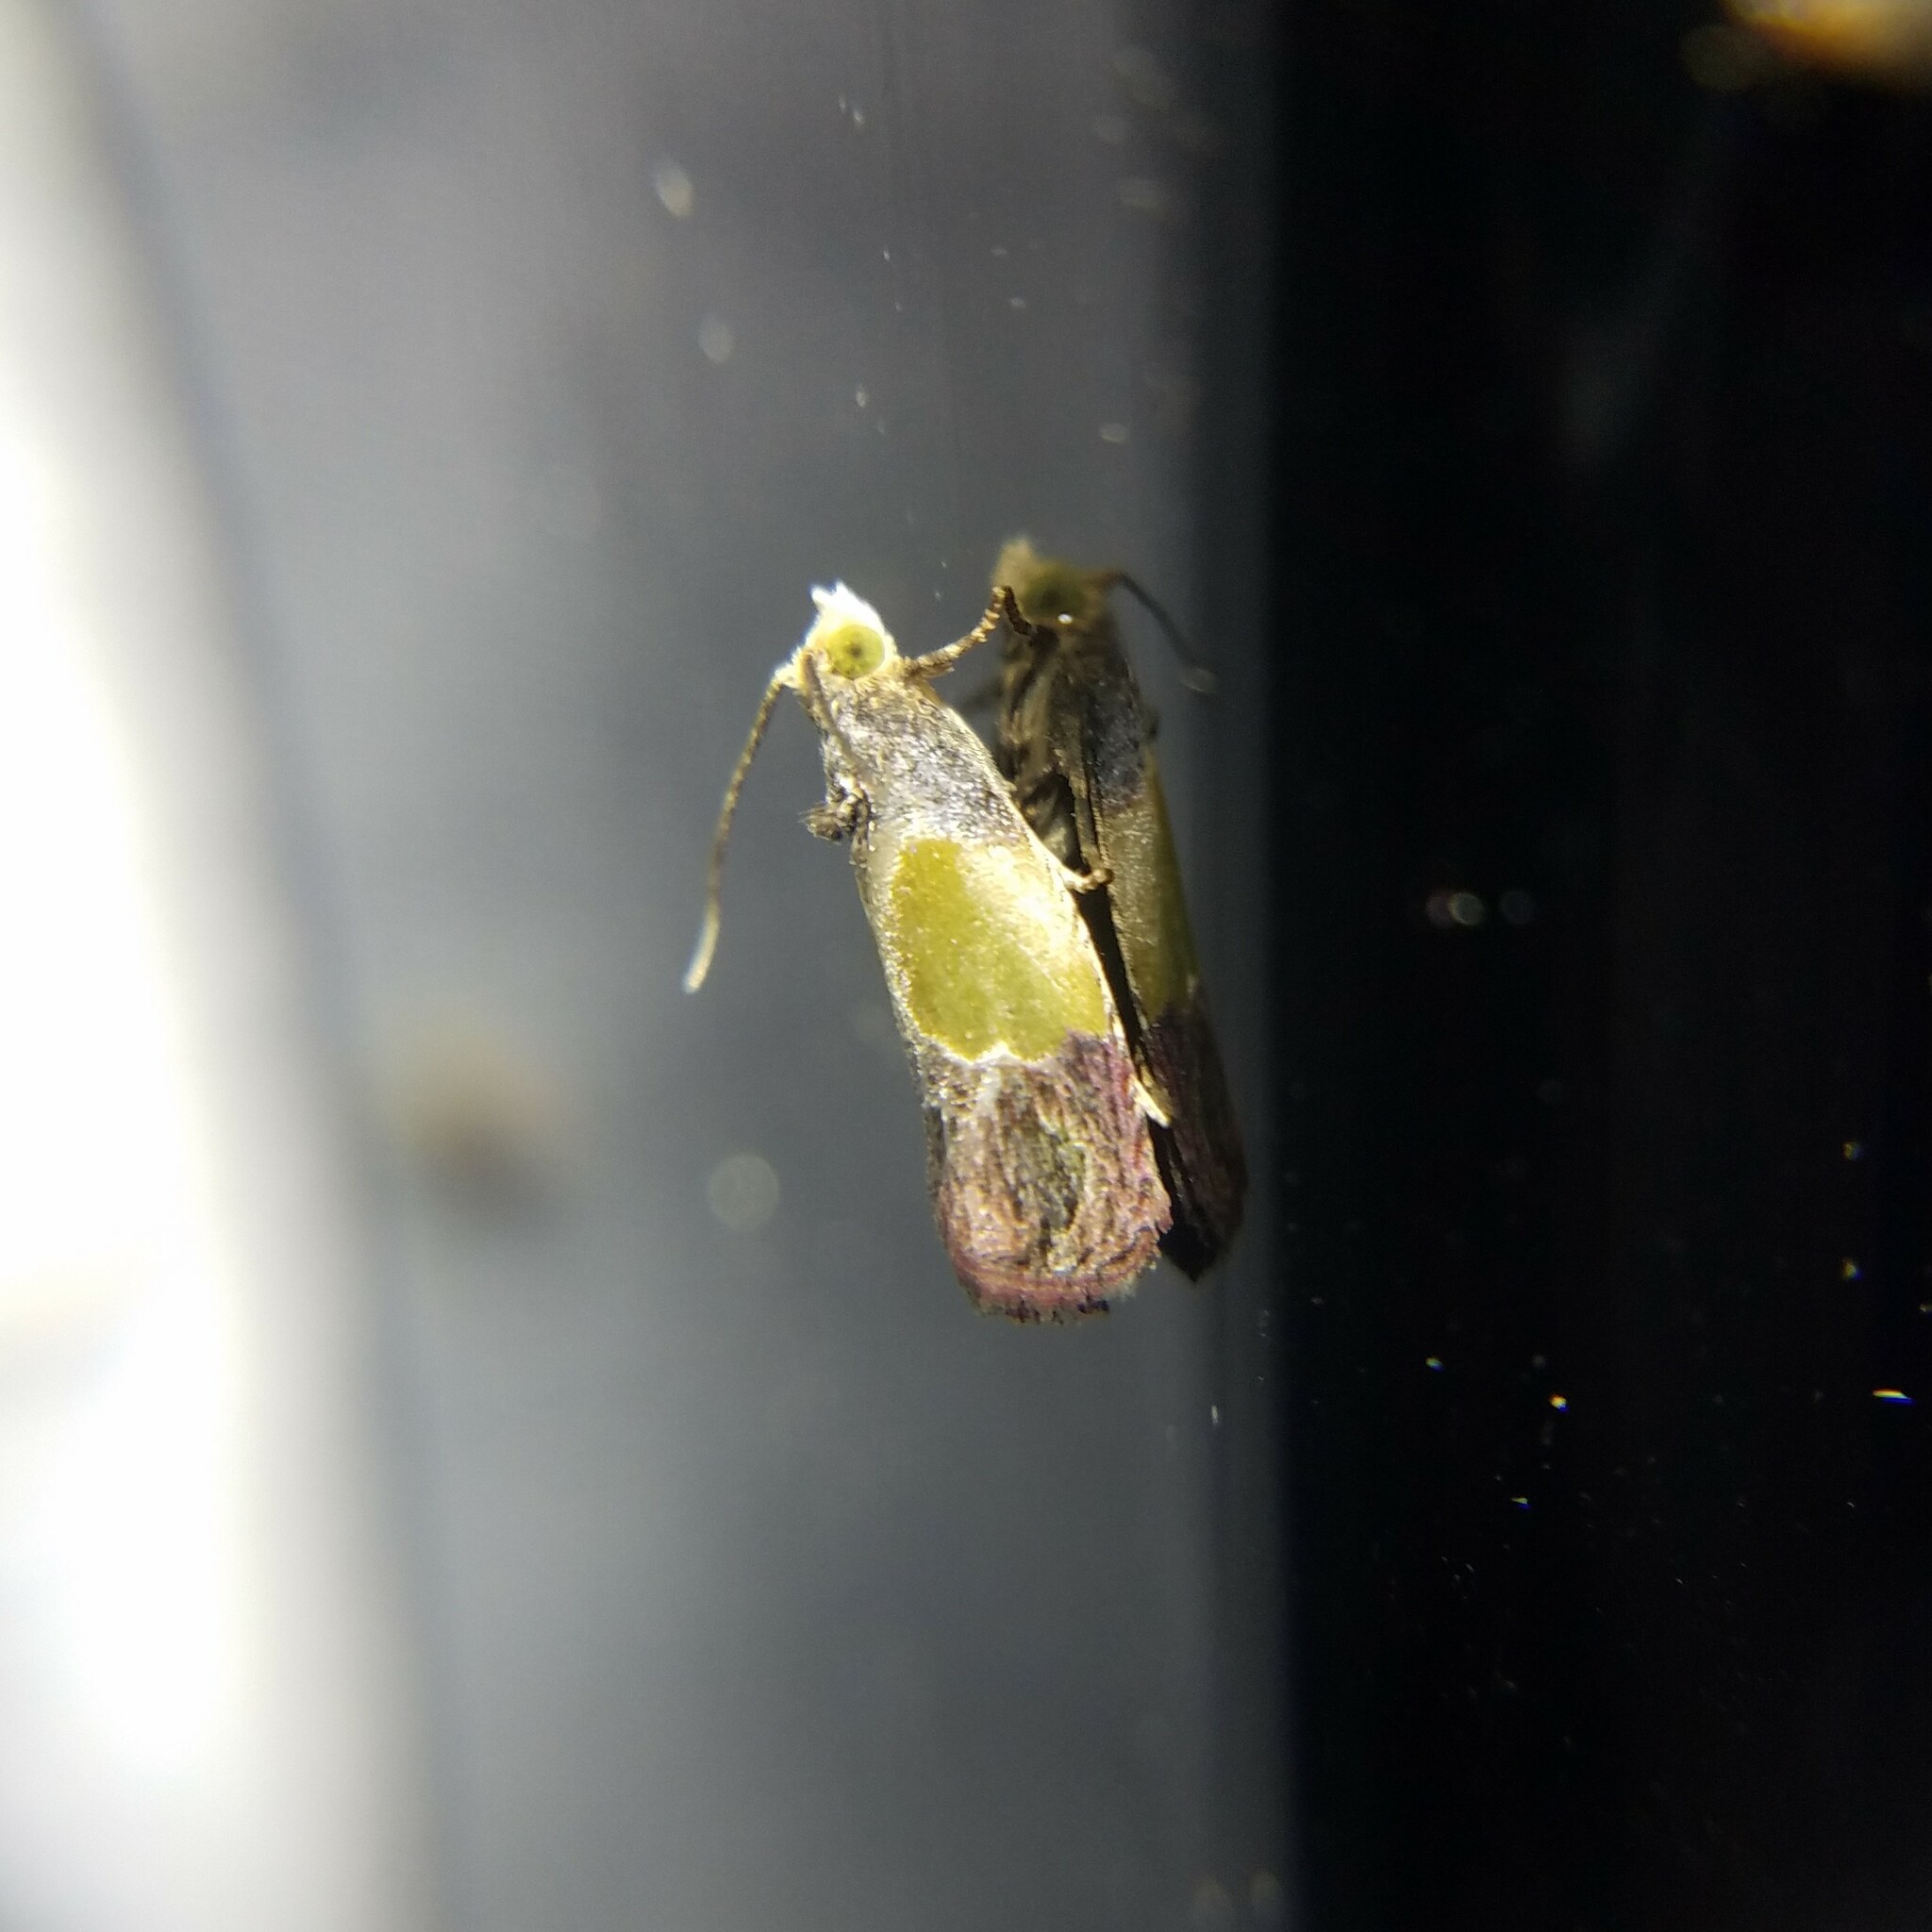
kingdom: Animalia
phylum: Arthropoda
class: Insecta
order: Lepidoptera
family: Tortricidae
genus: Eumarozia
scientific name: Eumarozia malachitana
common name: Sculptured moth
